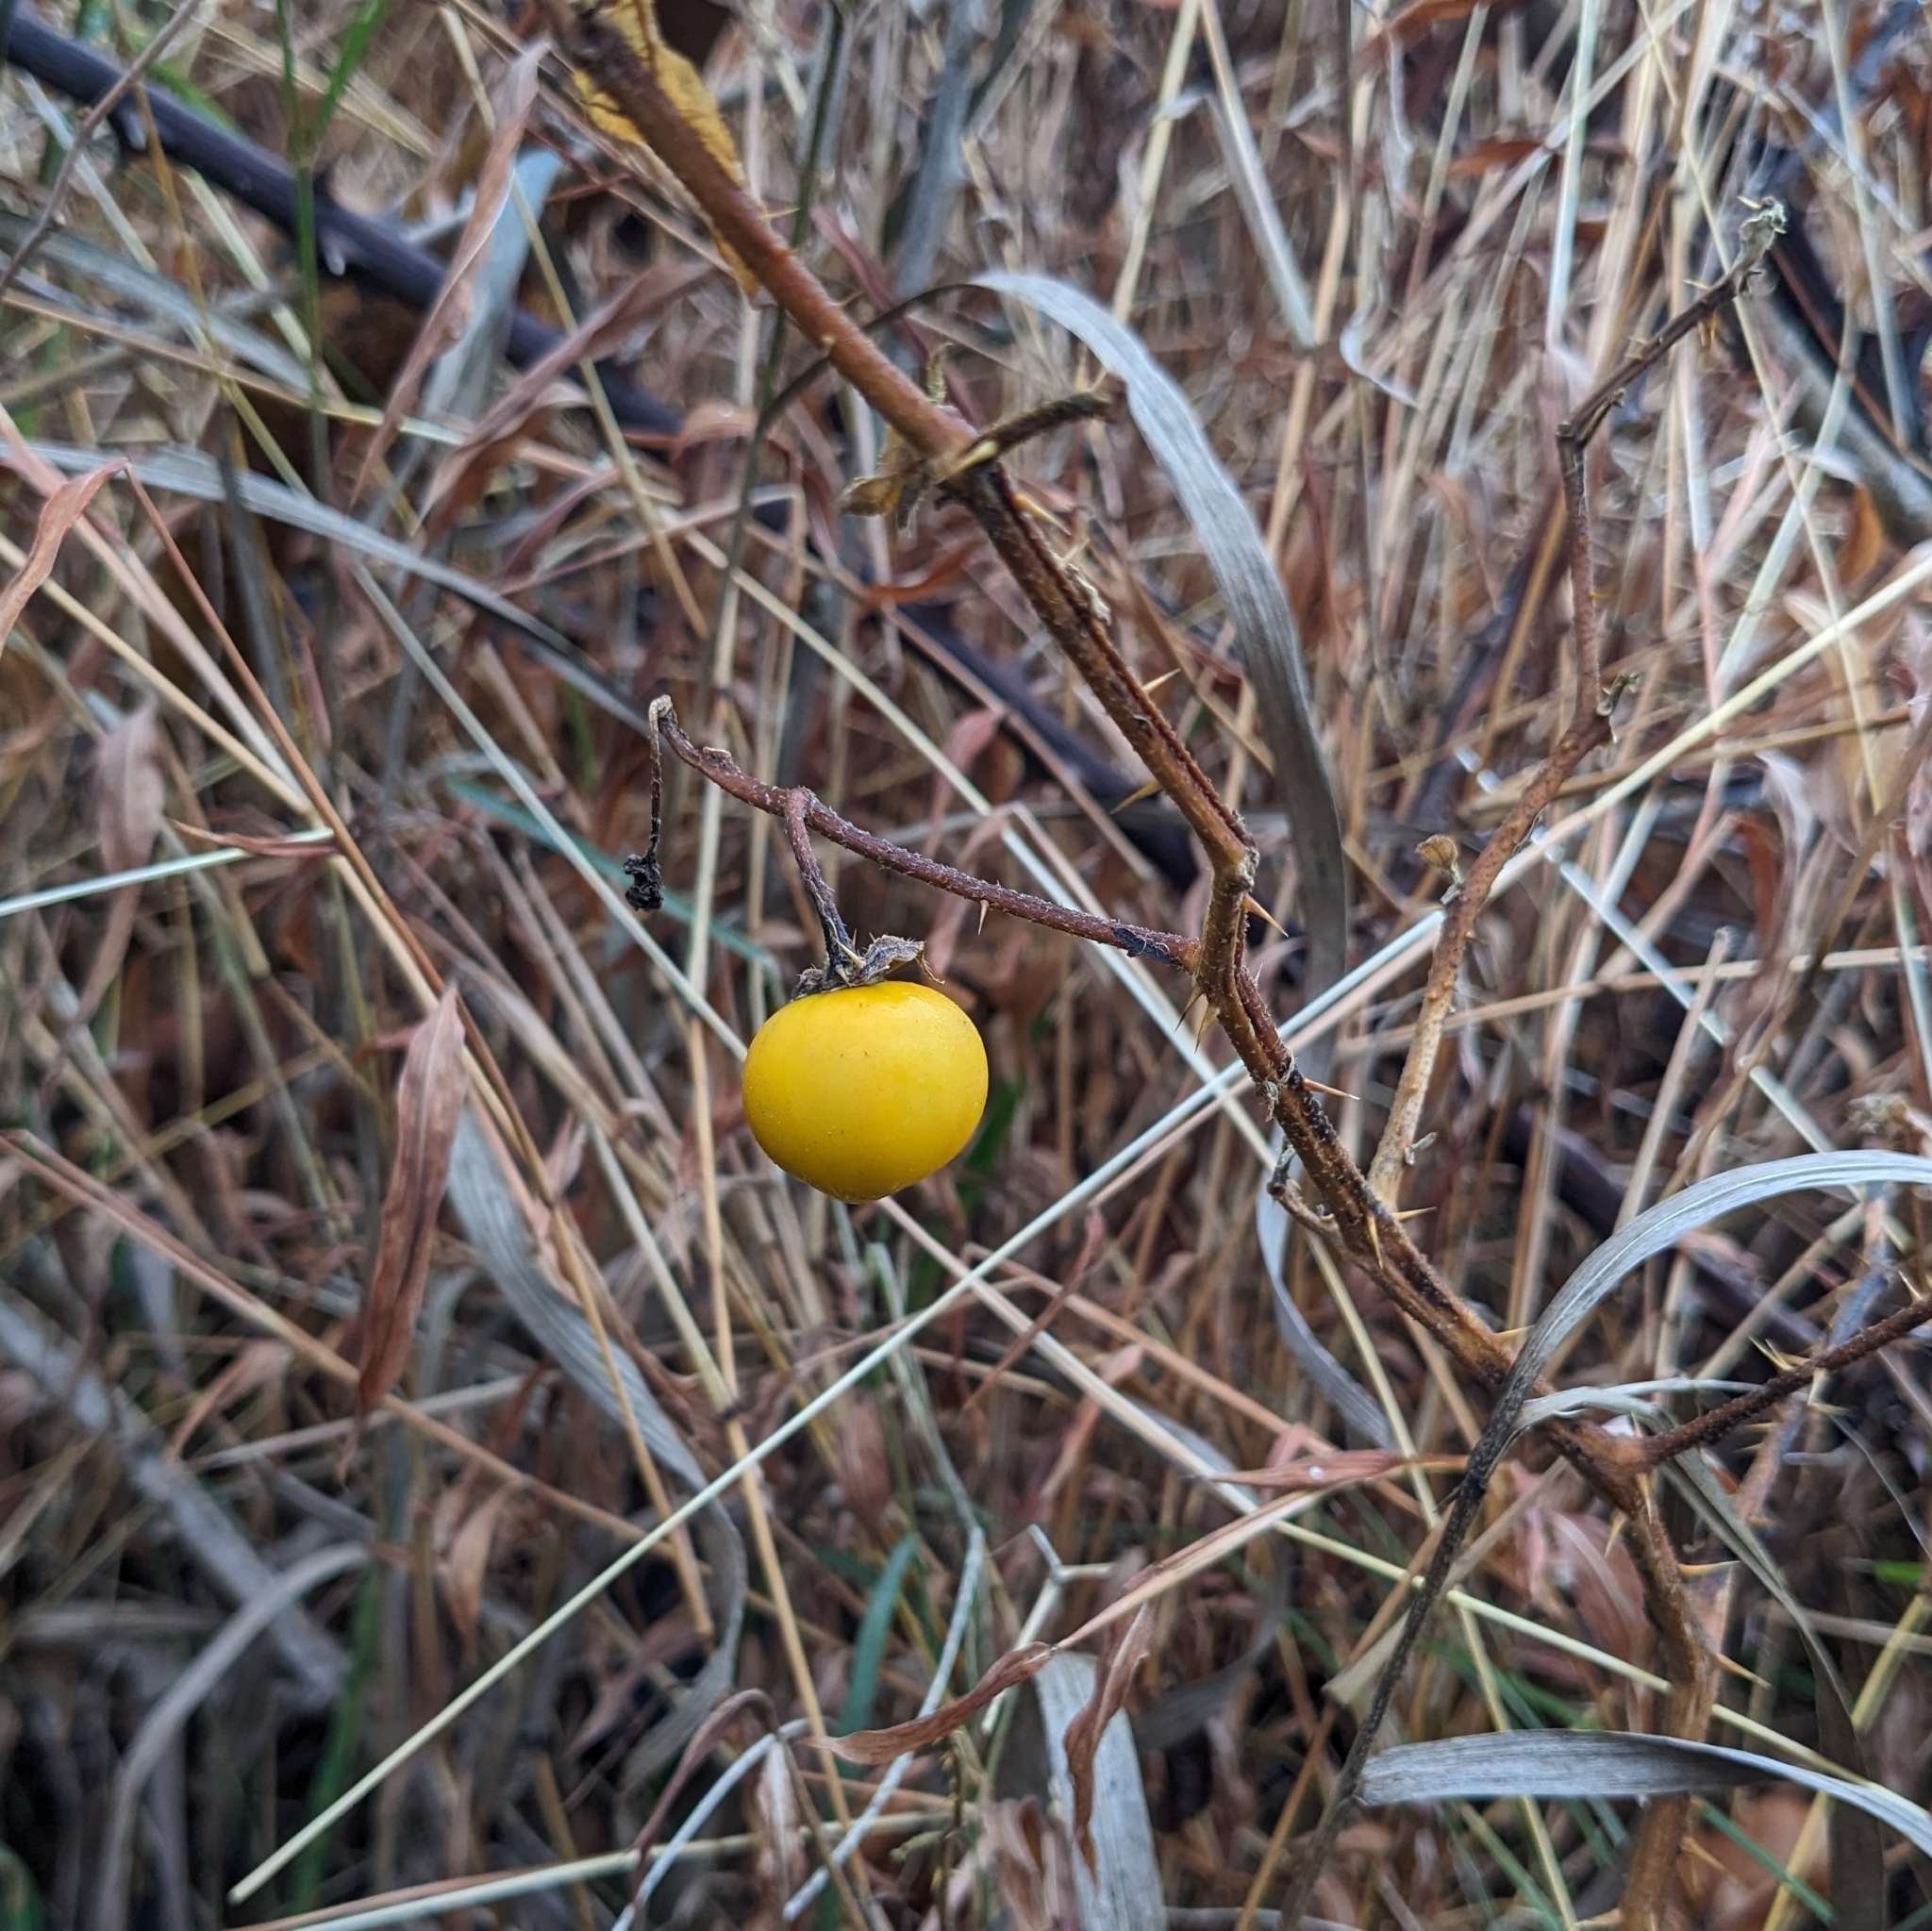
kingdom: Plantae
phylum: Tracheophyta
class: Magnoliopsida
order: Solanales
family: Solanaceae
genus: Solanum
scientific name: Solanum carolinense
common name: Horse-nettle
